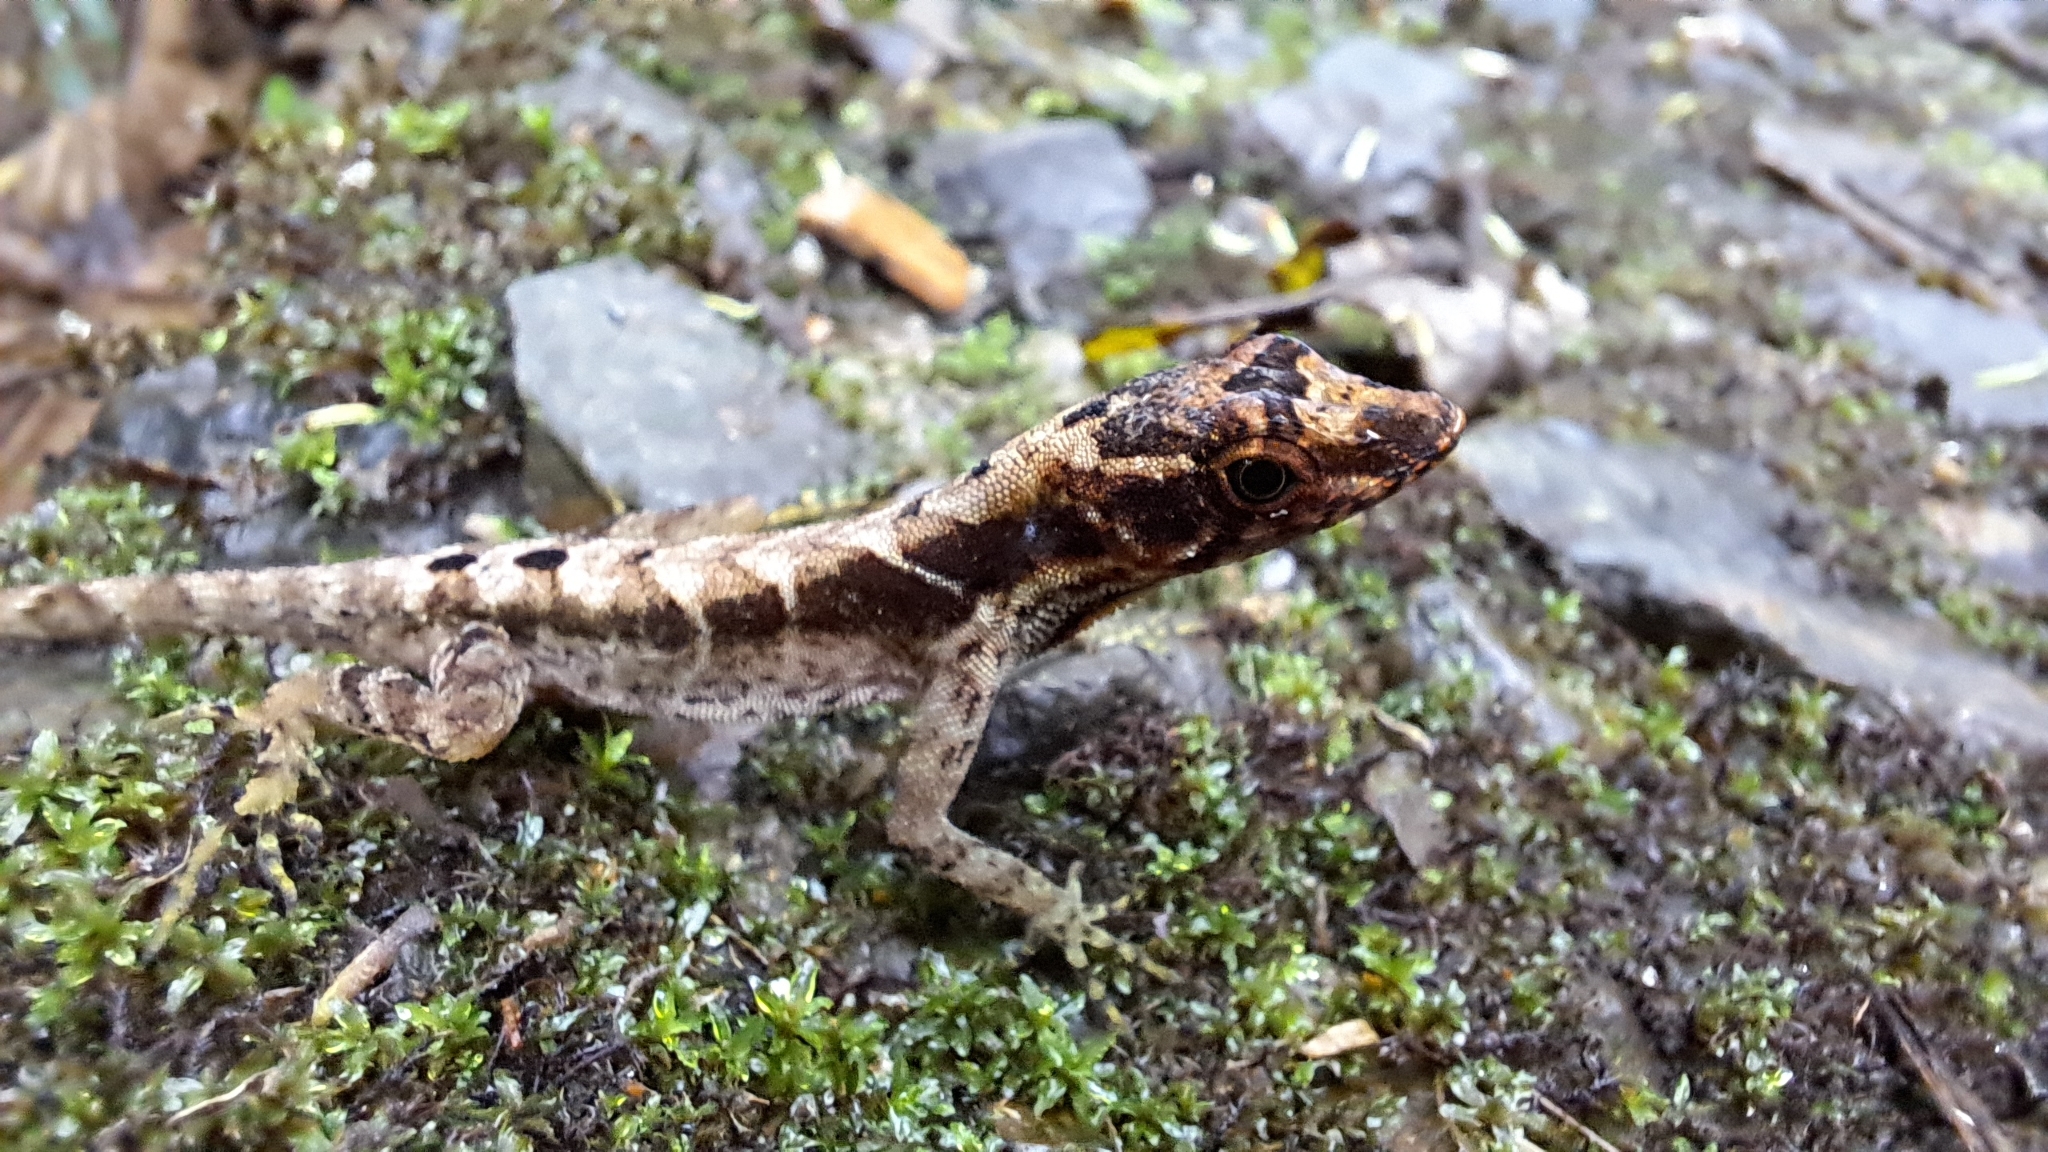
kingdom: Animalia
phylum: Chordata
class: Squamata
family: Dactyloidae
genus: Anolis
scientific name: Anolis humilis
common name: Humble anole
